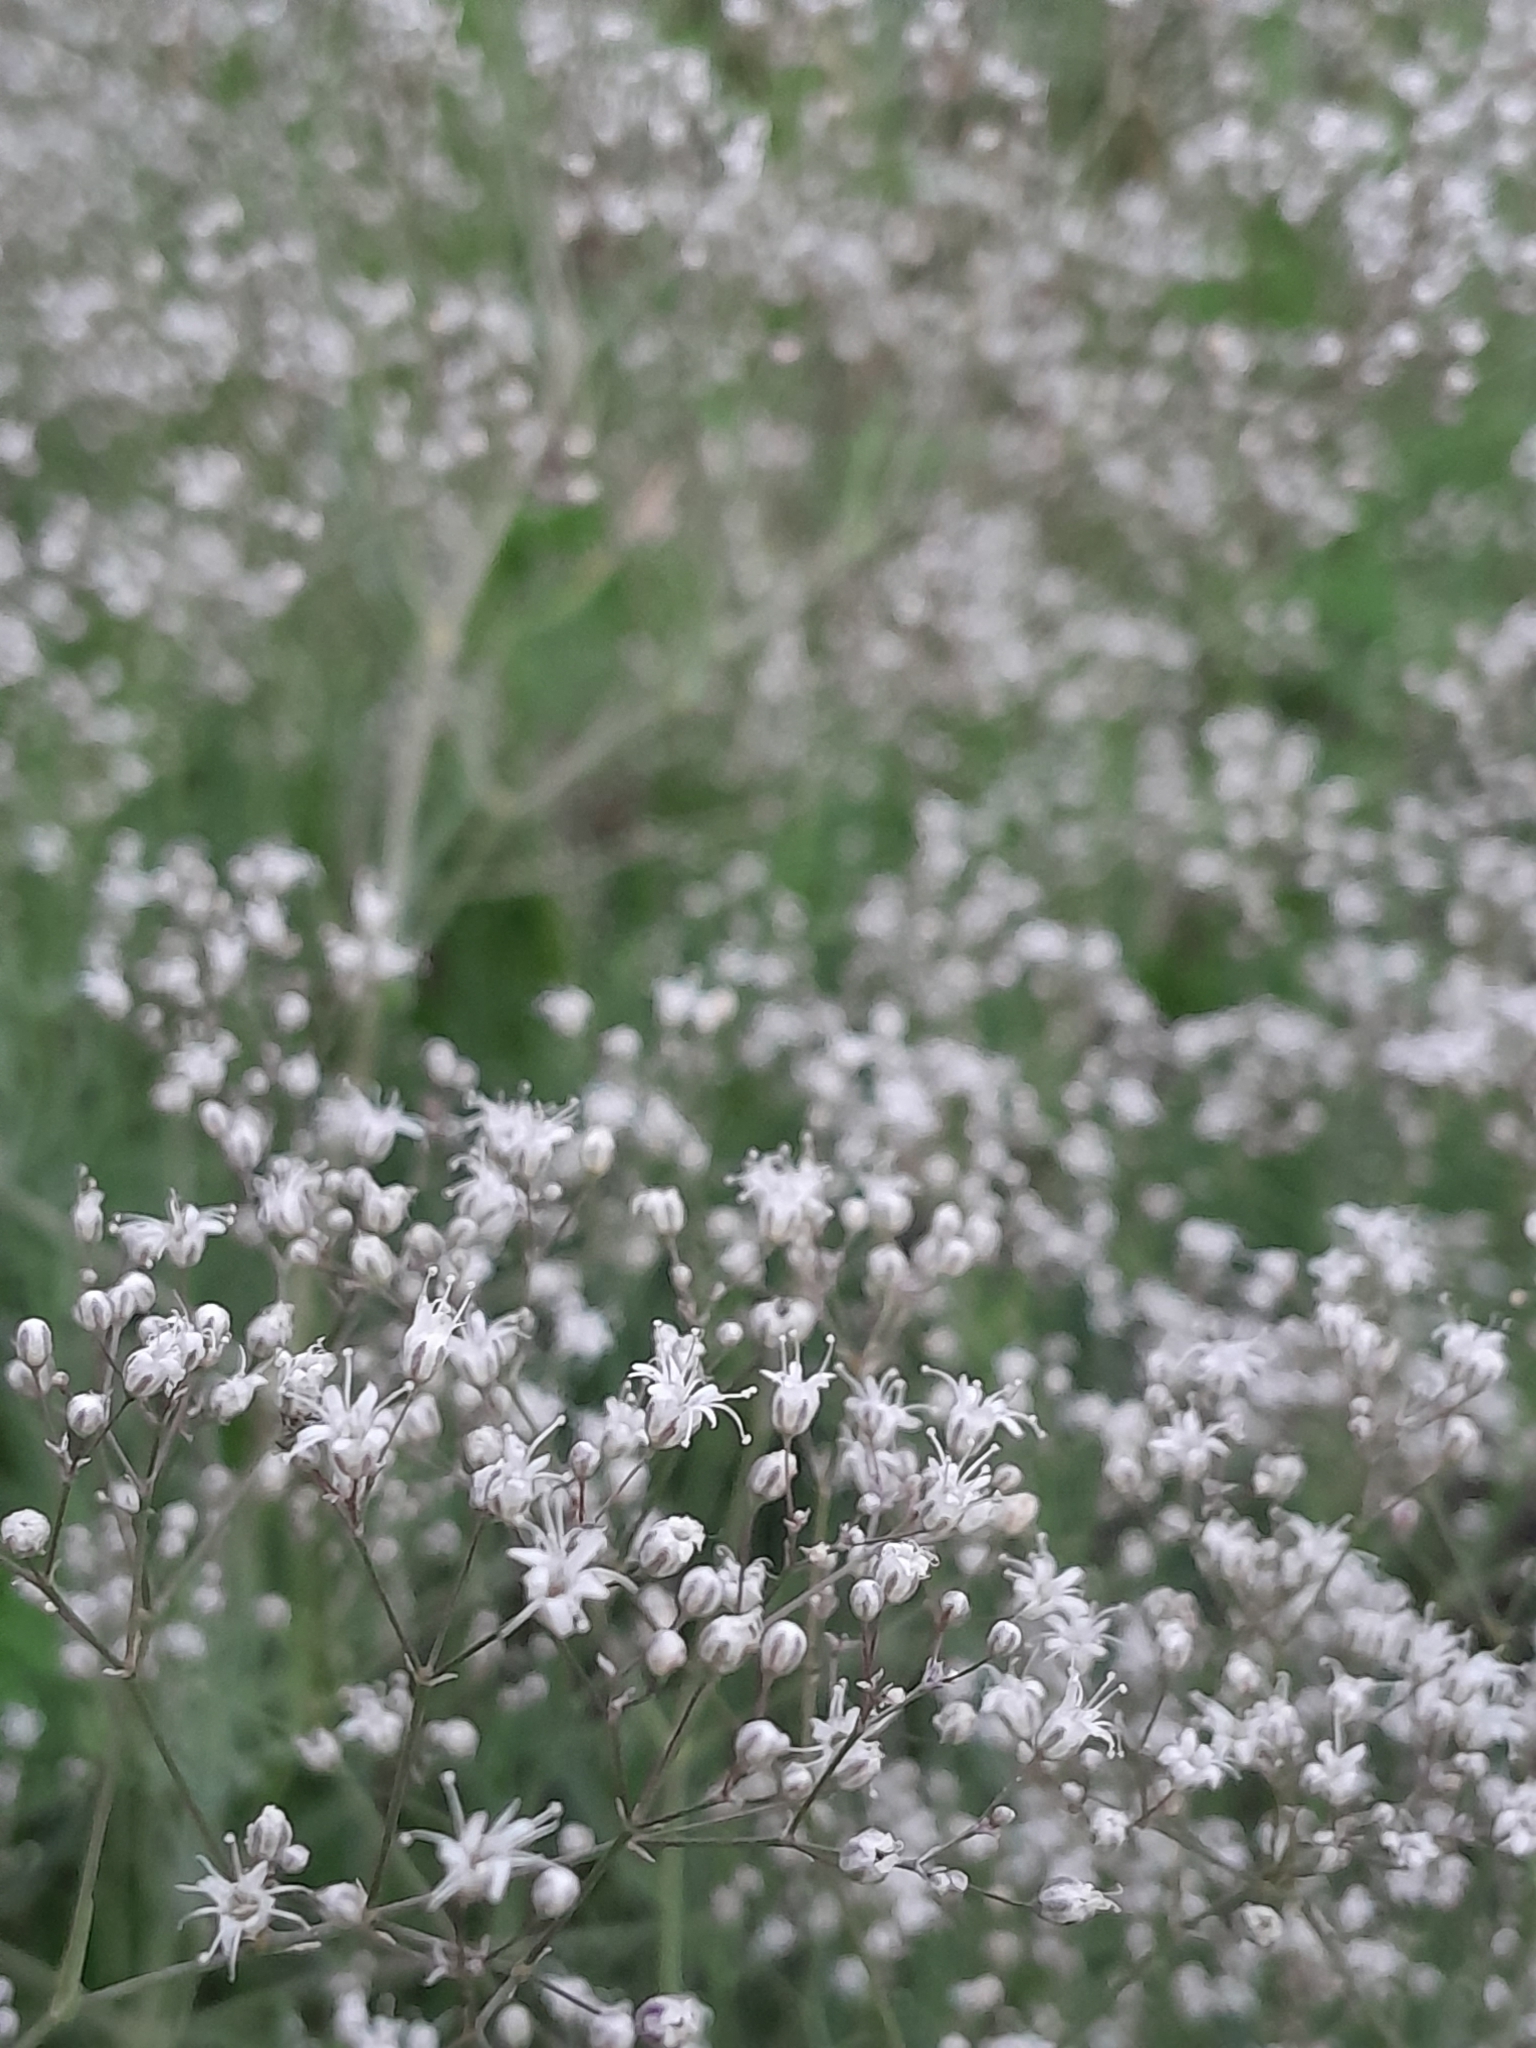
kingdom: Plantae
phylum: Tracheophyta
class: Magnoliopsida
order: Caryophyllales
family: Caryophyllaceae
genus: Gypsophila
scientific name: Gypsophila paniculata
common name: Baby's-breath
